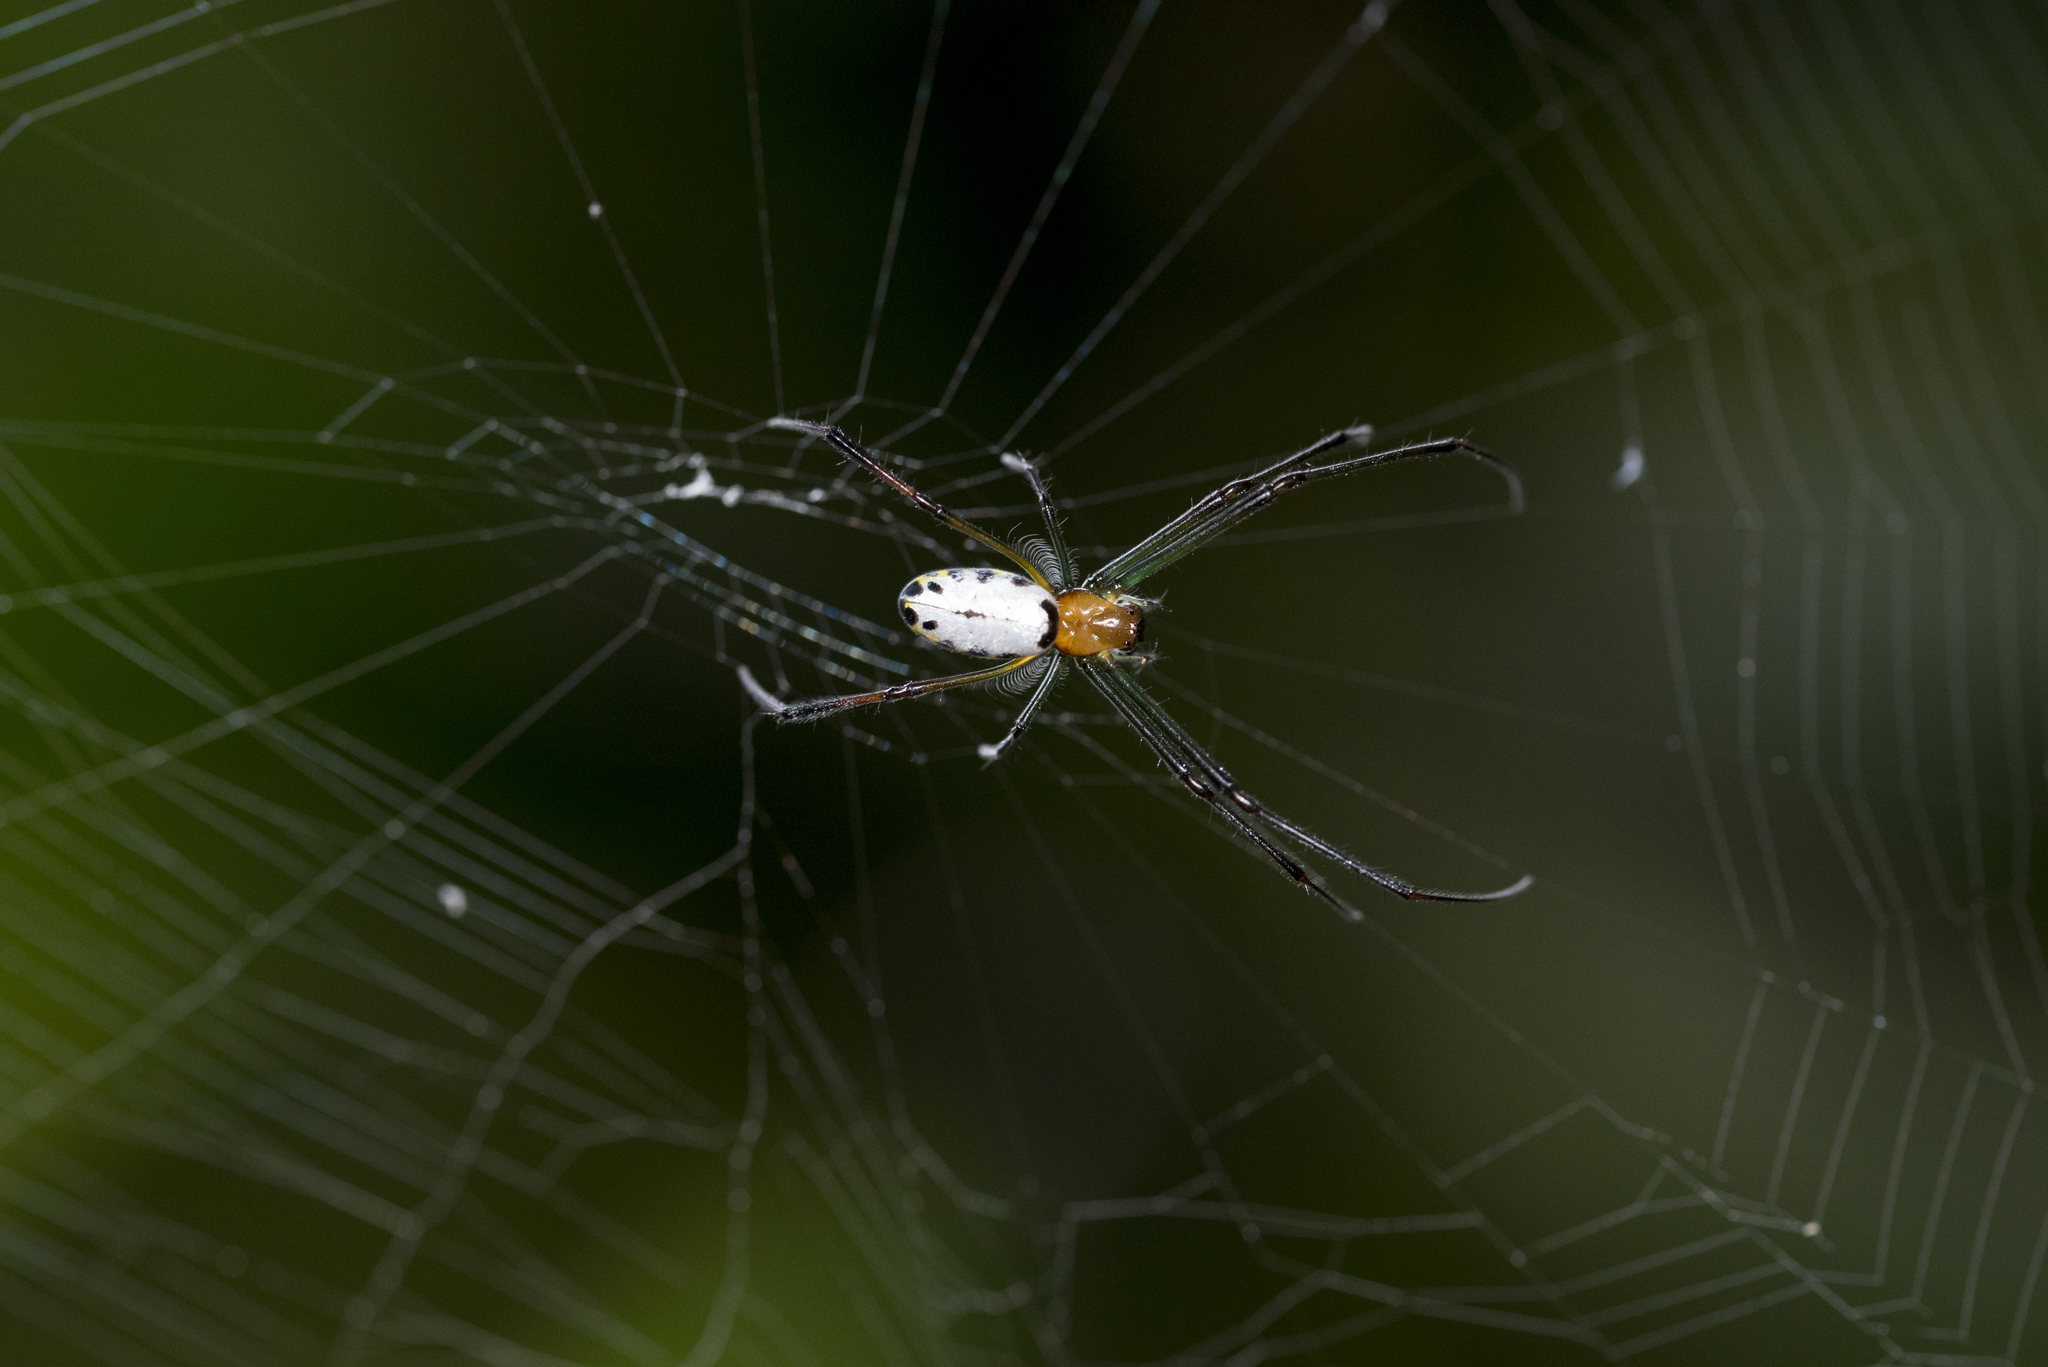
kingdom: Animalia
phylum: Arthropoda
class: Arachnida
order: Araneae
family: Tetragnathidae
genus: Leucauge
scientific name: Leucauge taiwanica
